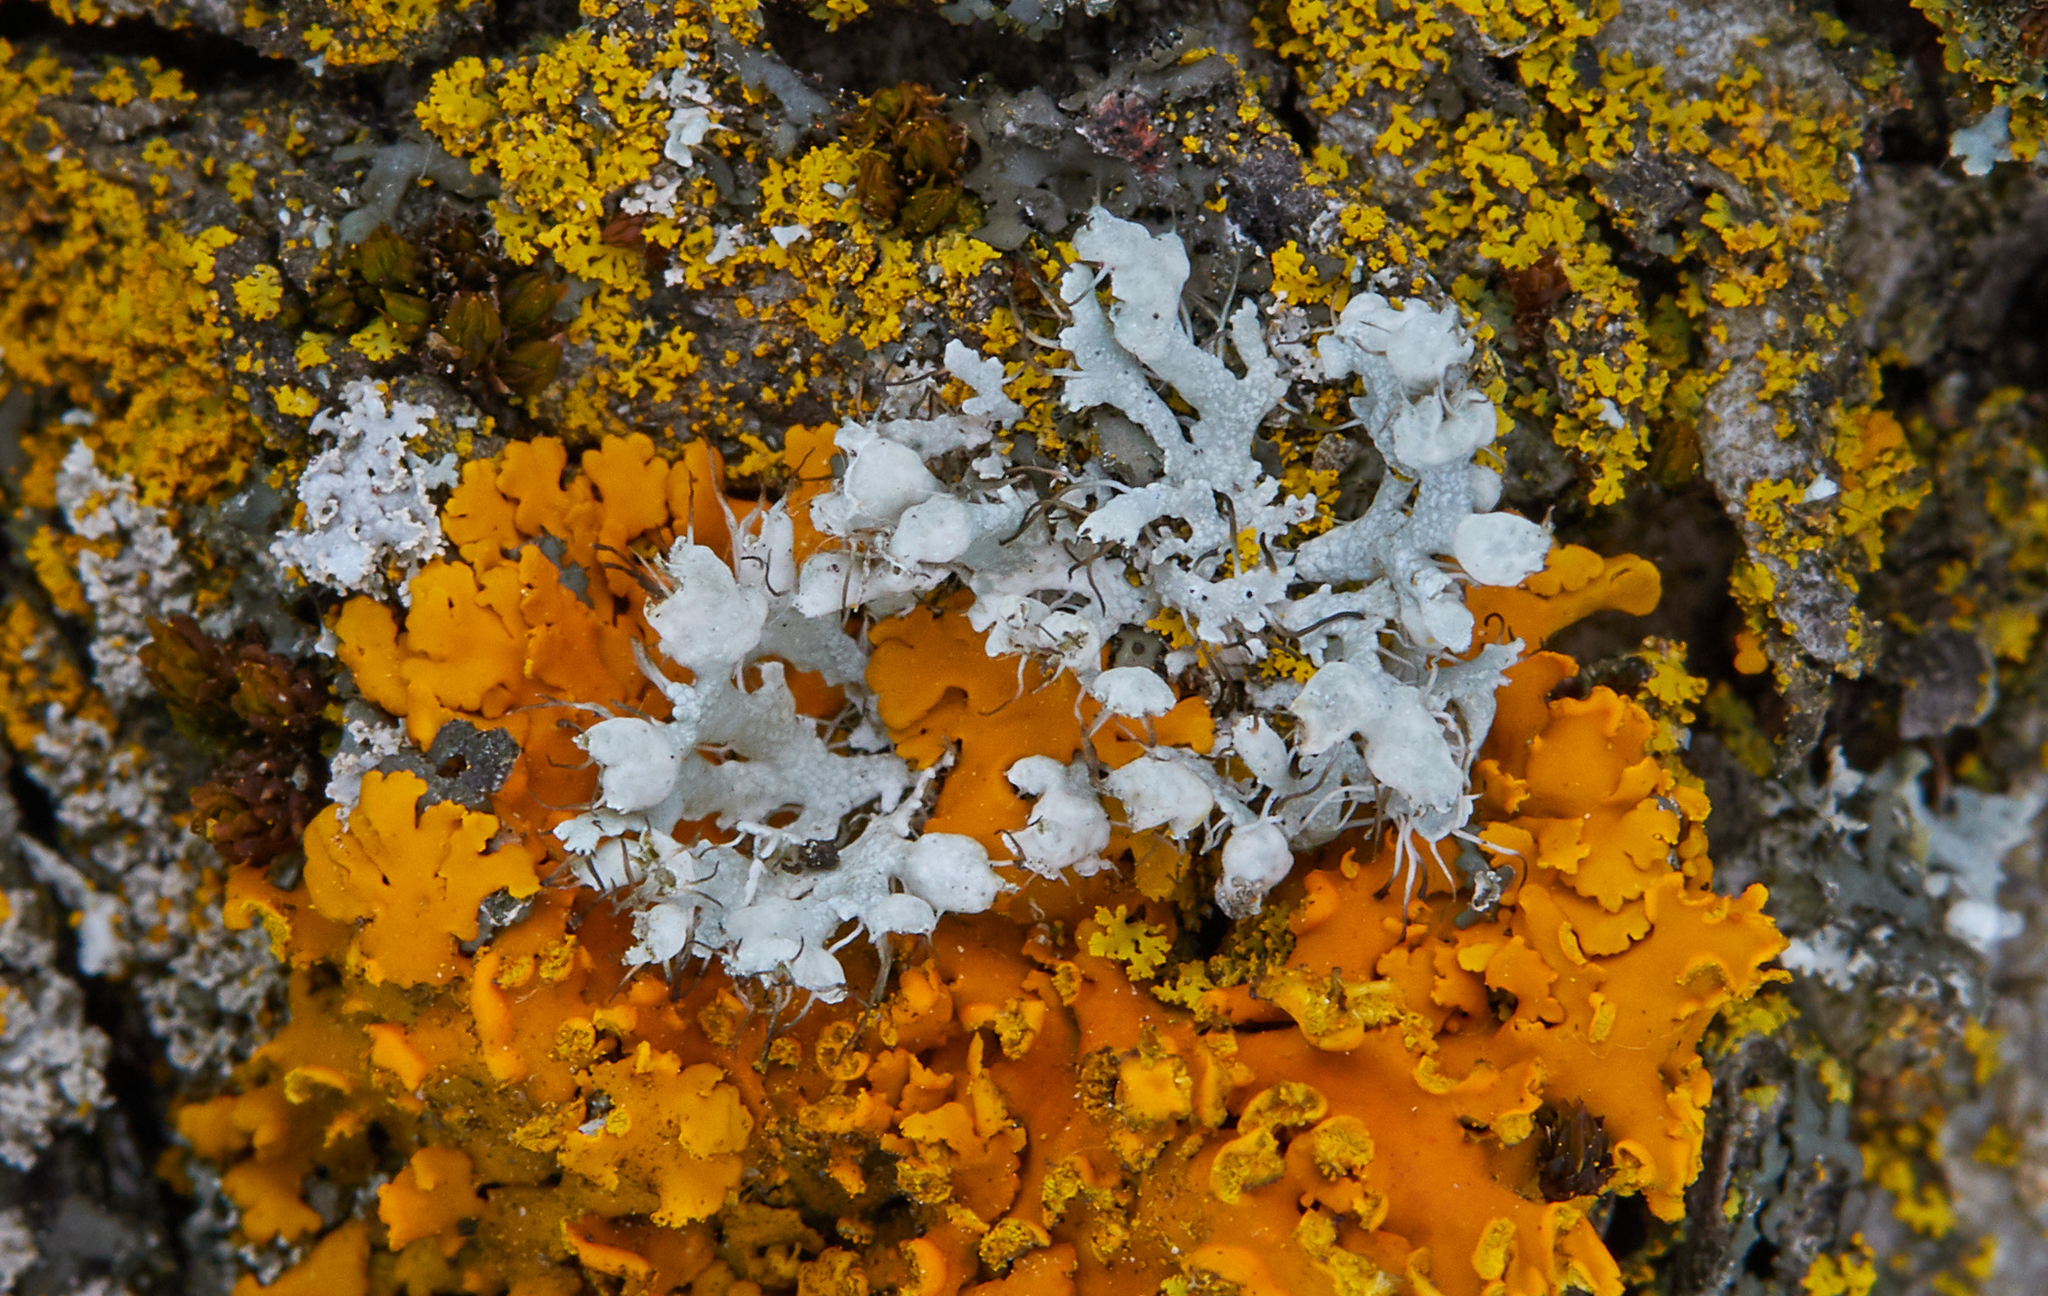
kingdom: Fungi
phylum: Ascomycota
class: Lecanoromycetes
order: Caliciales
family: Physciaceae
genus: Physcia
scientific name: Physcia adscendens
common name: Hooded rosette lichen
